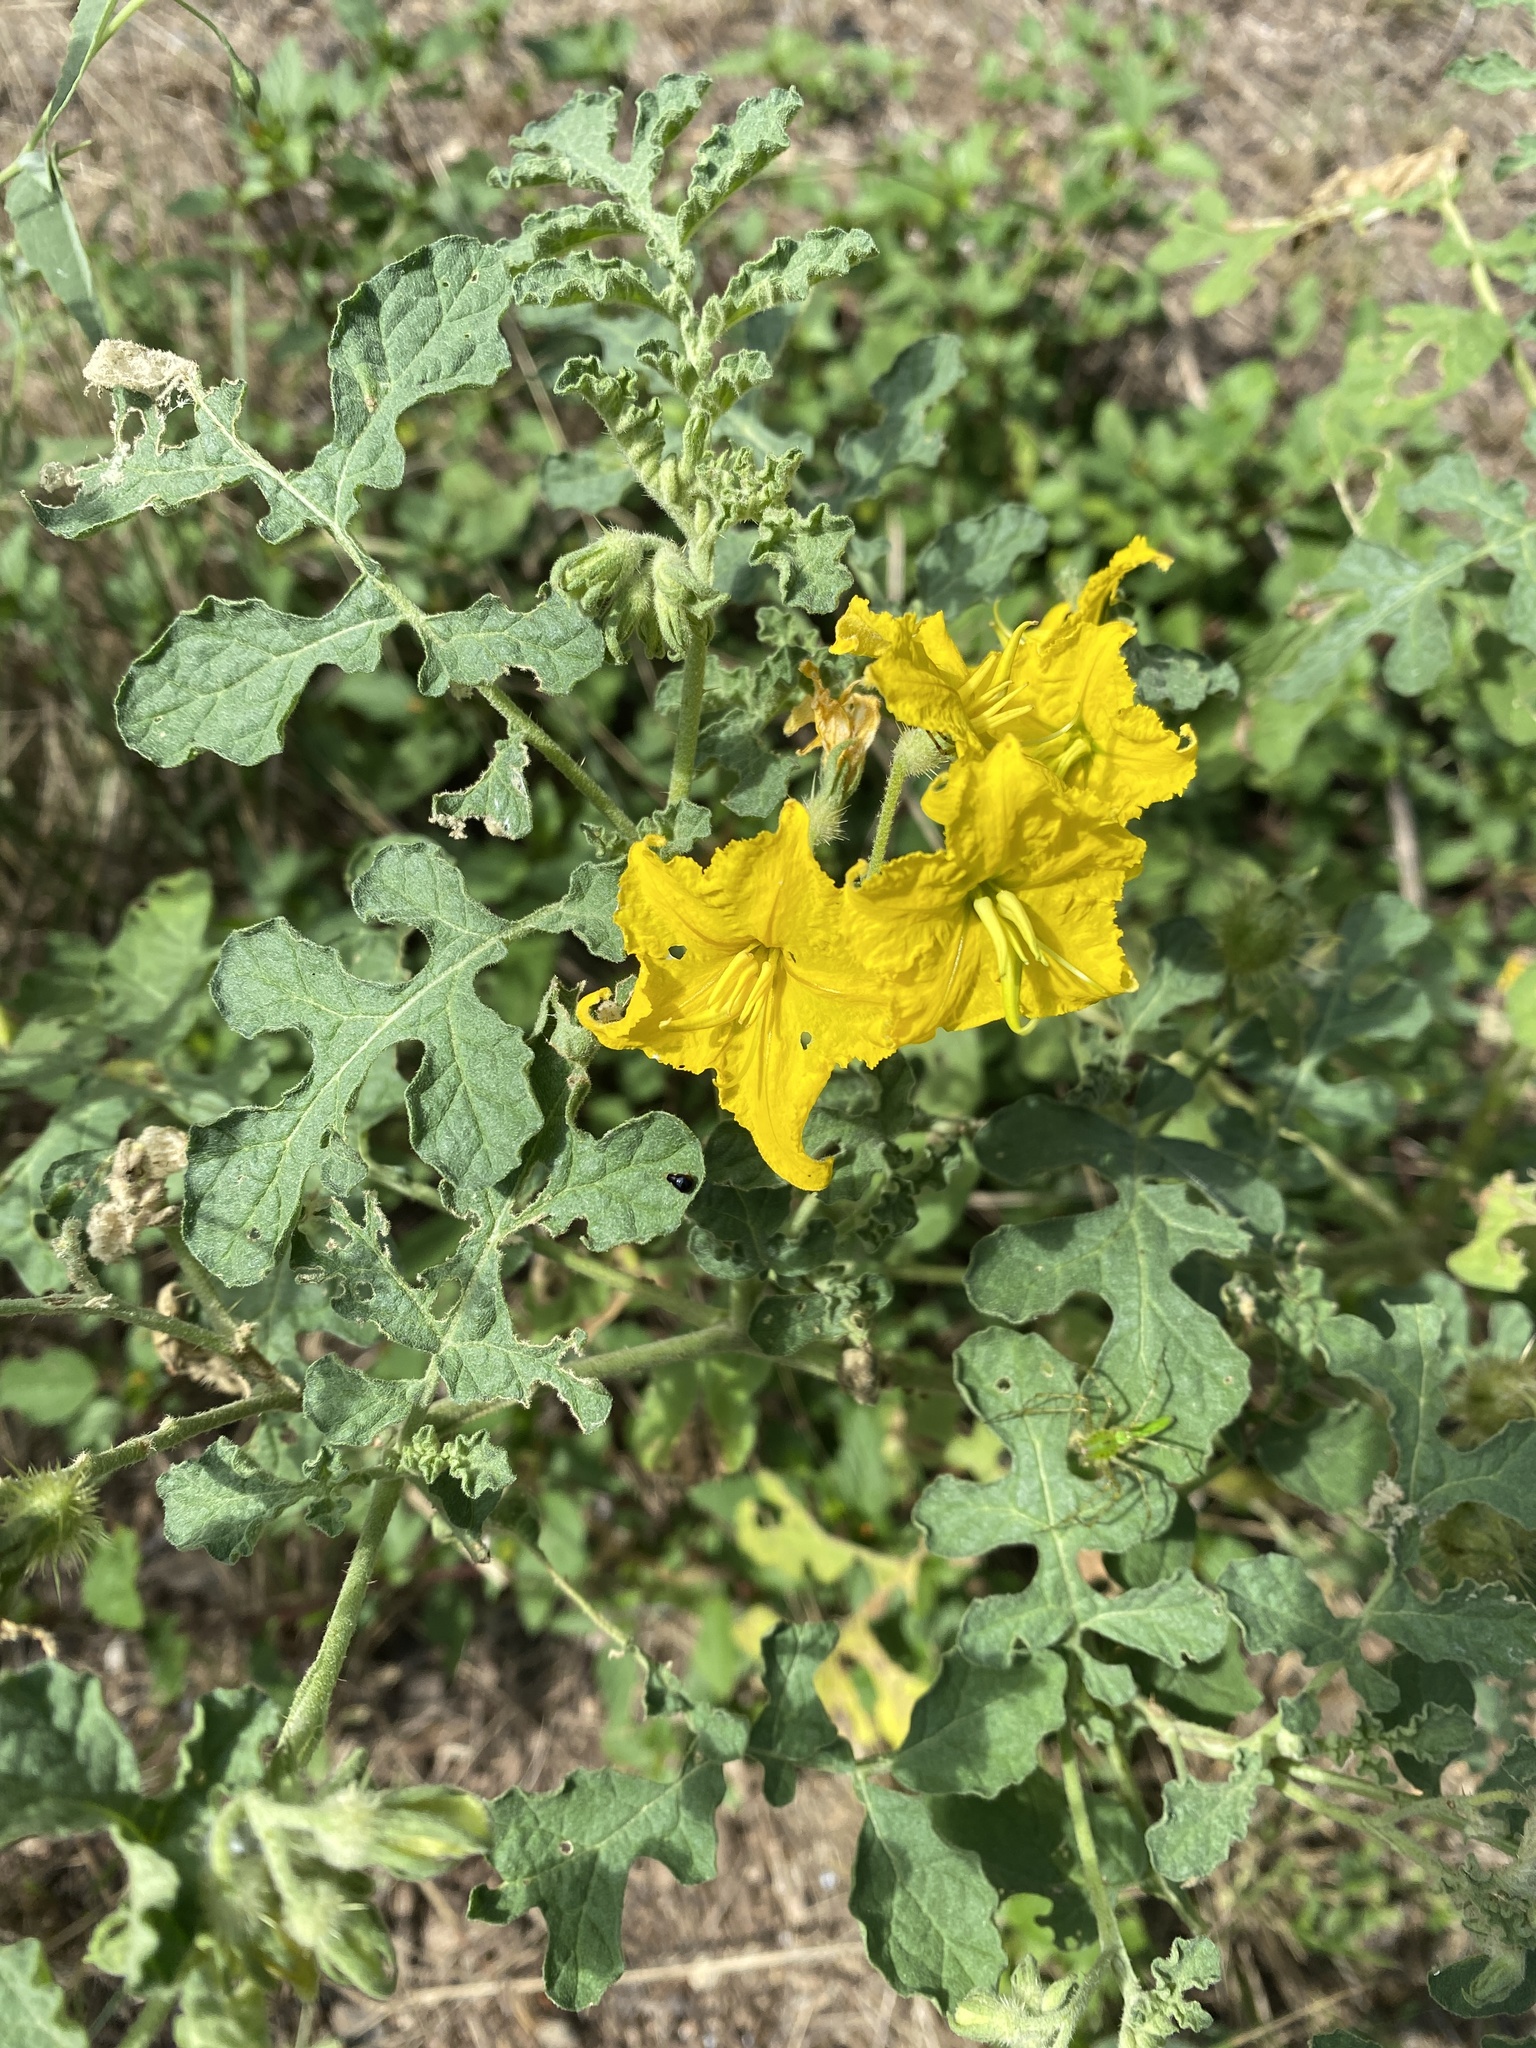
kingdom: Plantae
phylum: Tracheophyta
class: Magnoliopsida
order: Solanales
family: Solanaceae
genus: Solanum
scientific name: Solanum angustifolium
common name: Buffalobur nightshade
